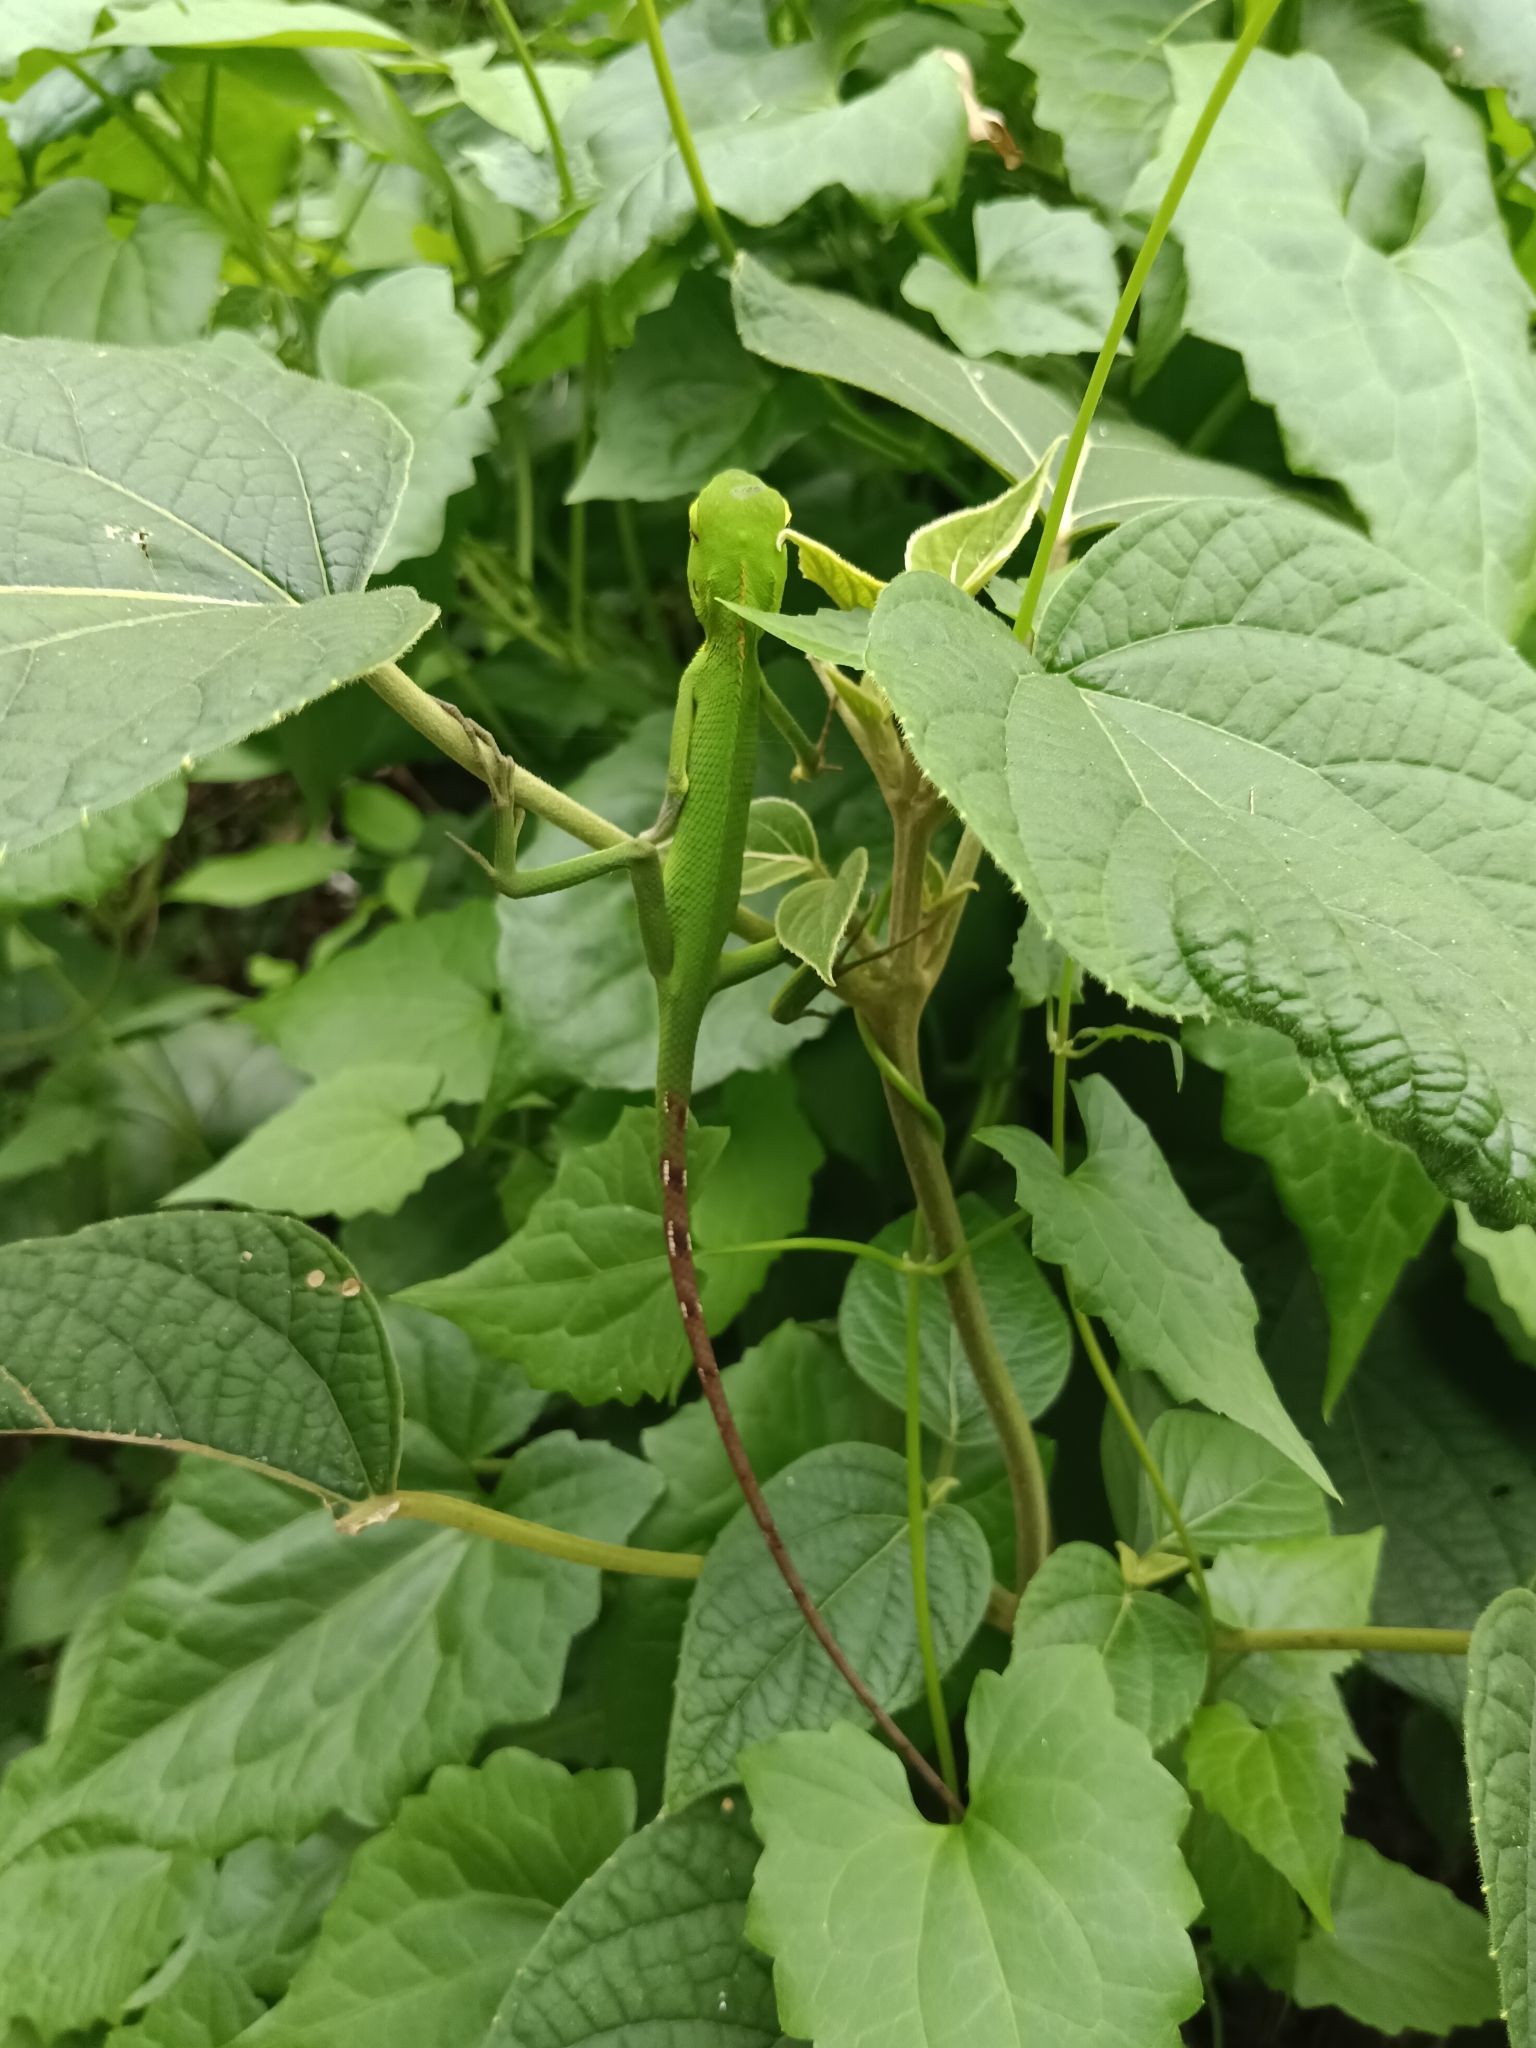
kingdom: Animalia
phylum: Chordata
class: Squamata
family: Agamidae
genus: Calotes
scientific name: Calotes calotes
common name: Common green forest lizard
